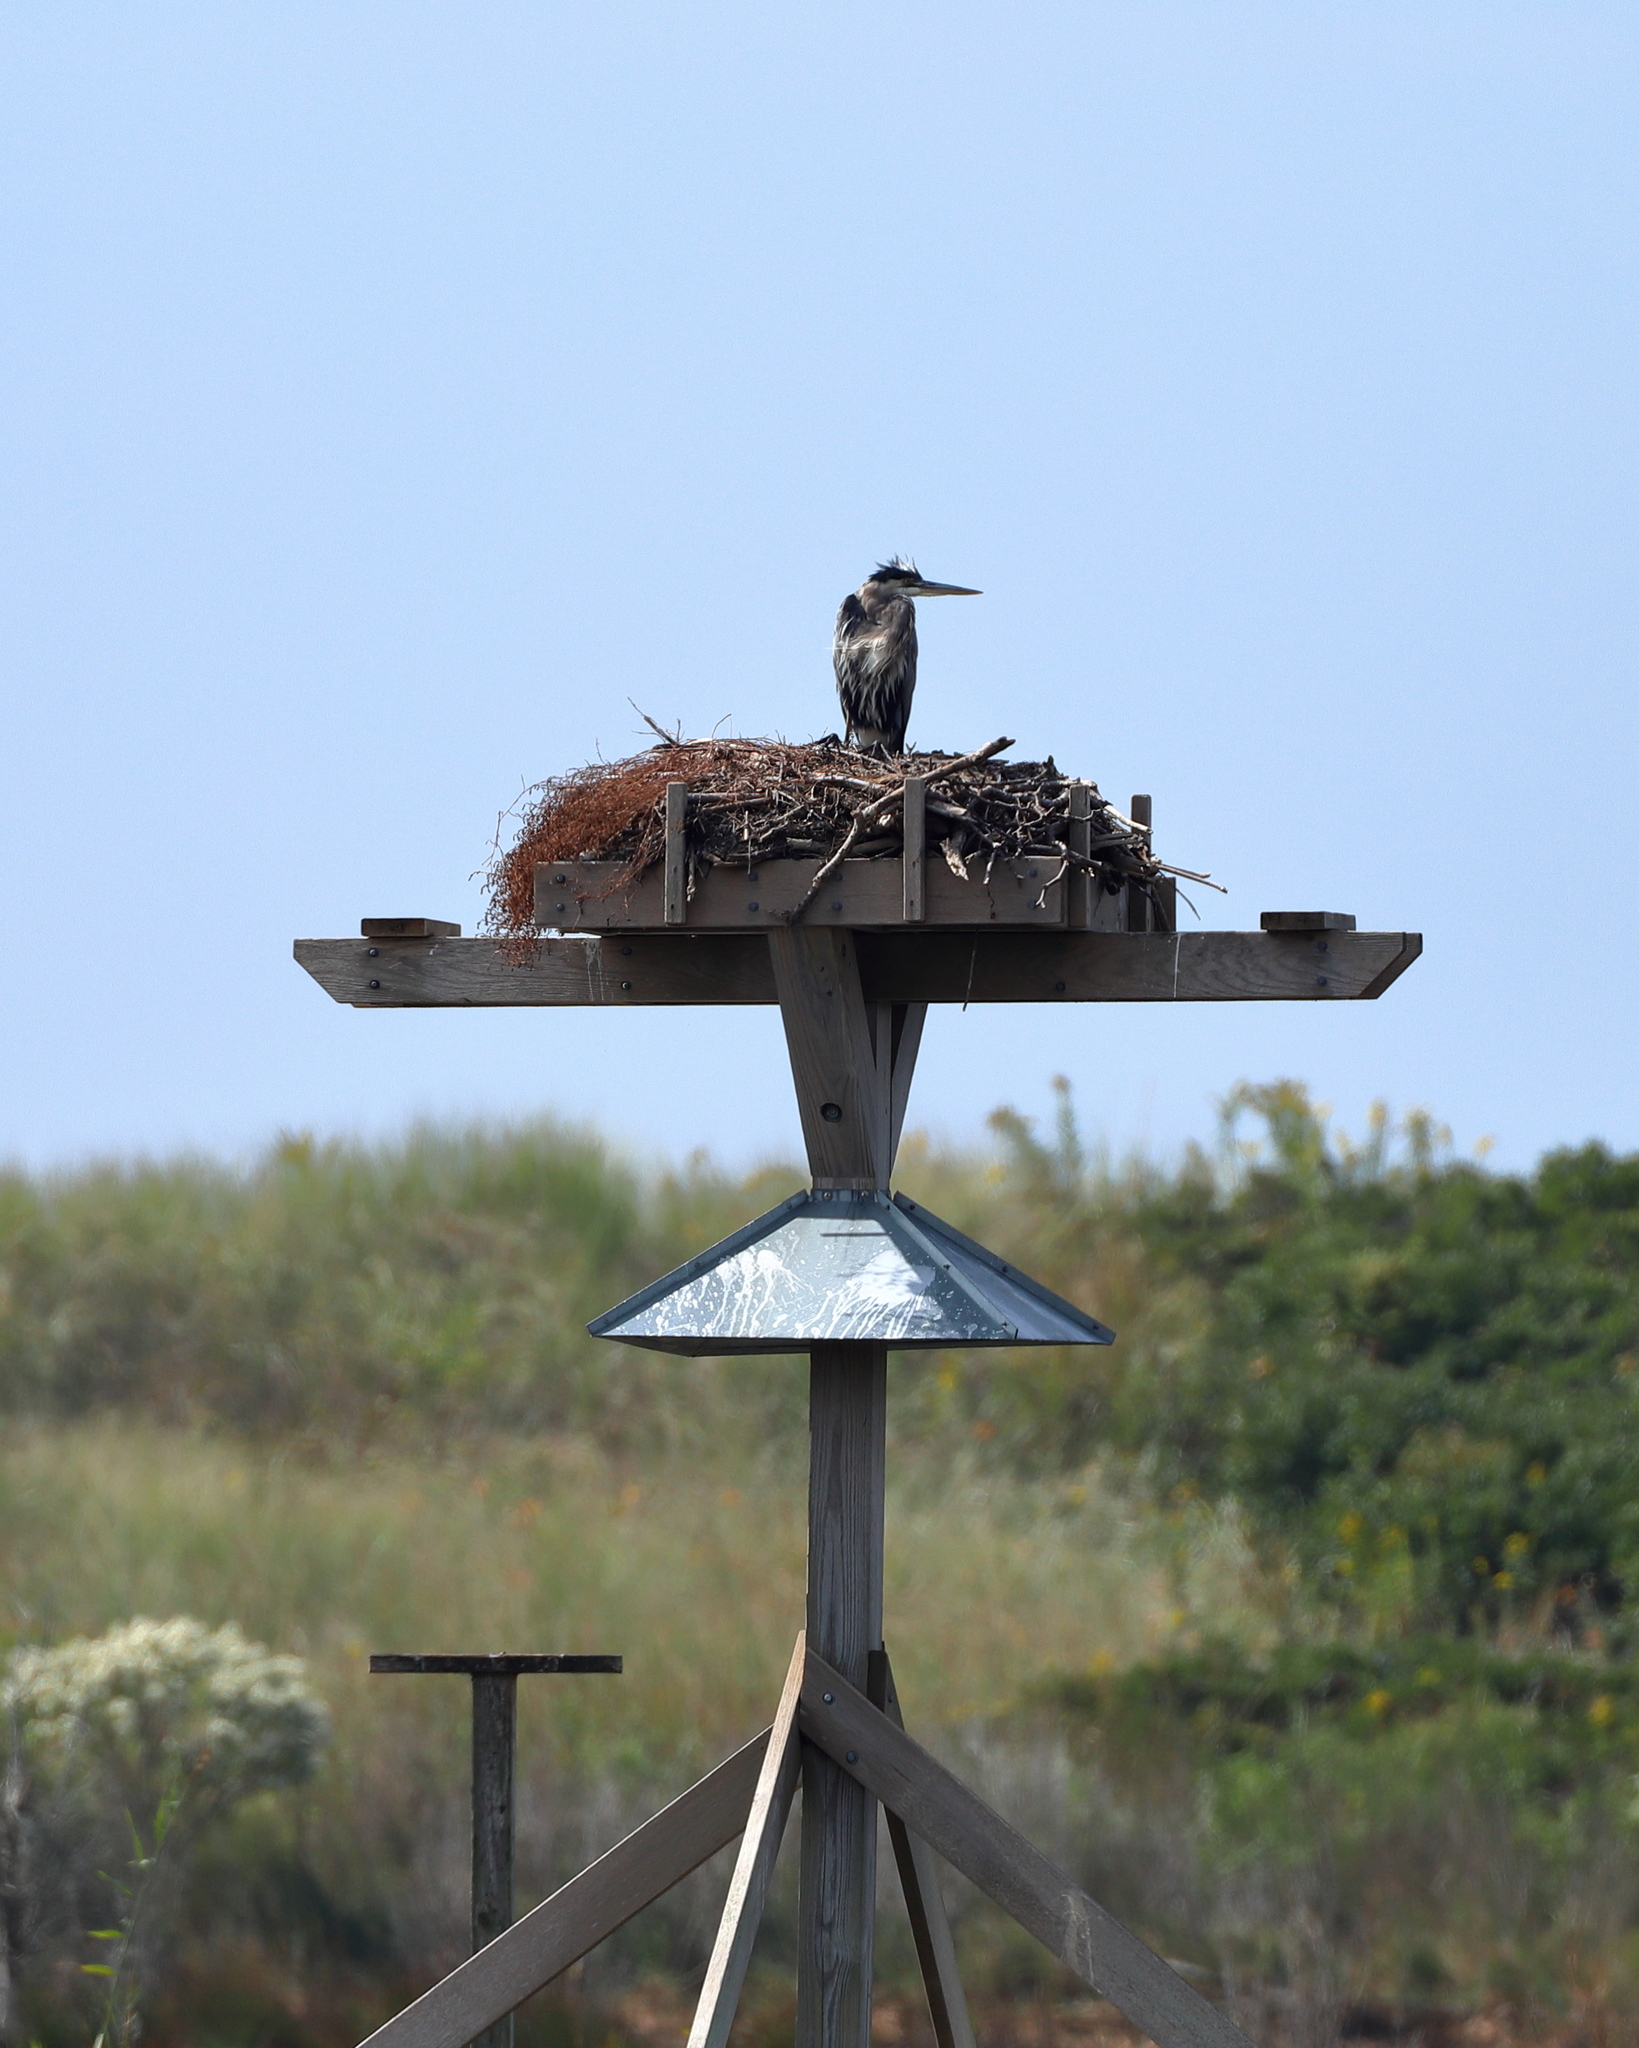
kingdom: Animalia
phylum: Chordata
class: Aves
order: Pelecaniformes
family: Ardeidae
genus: Ardea
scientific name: Ardea herodias
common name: Great blue heron
